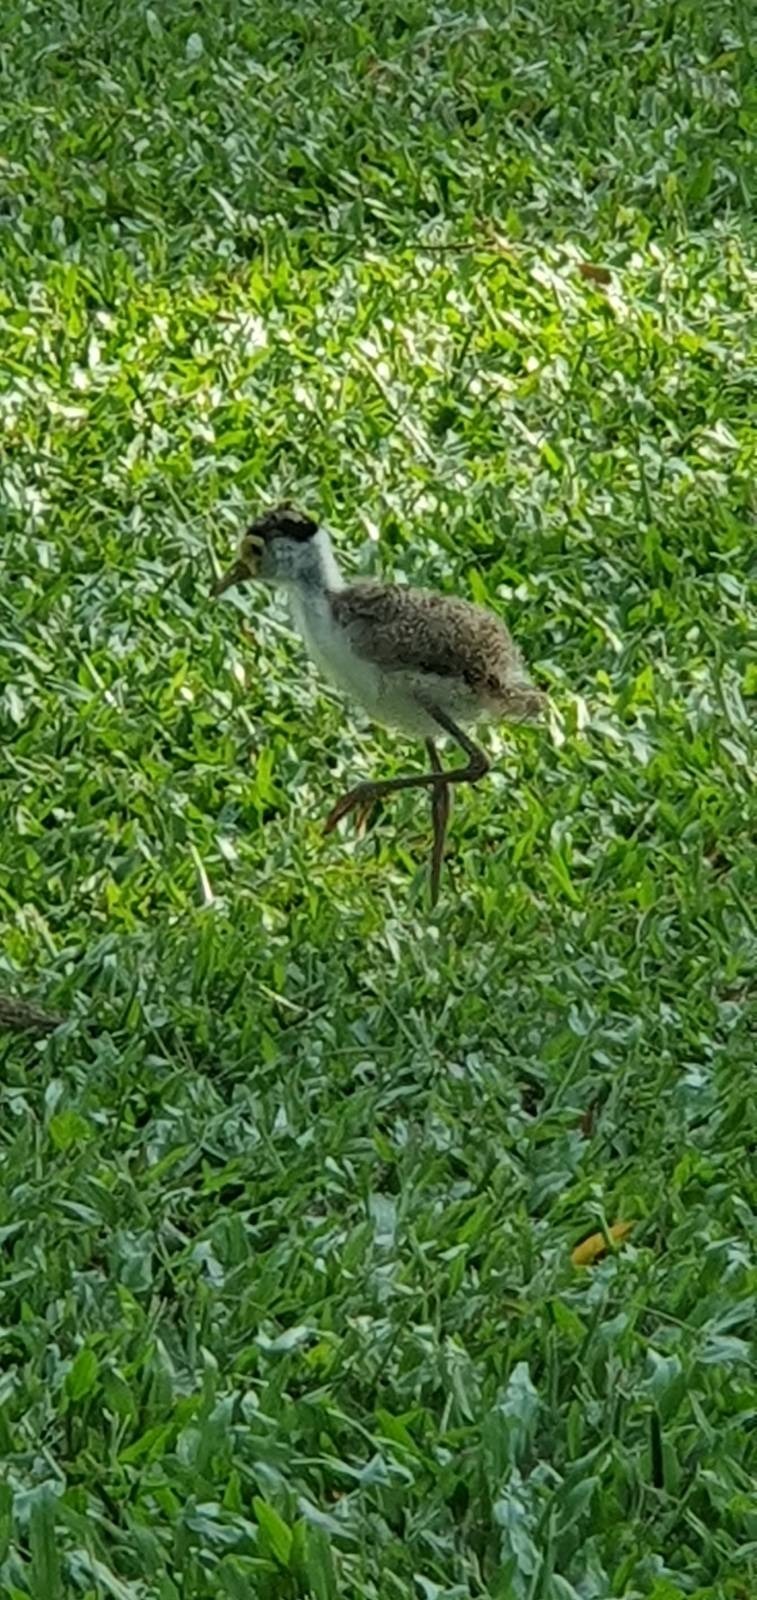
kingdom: Animalia
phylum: Chordata
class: Aves
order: Charadriiformes
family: Charadriidae
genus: Vanellus
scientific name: Vanellus miles
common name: Masked lapwing
